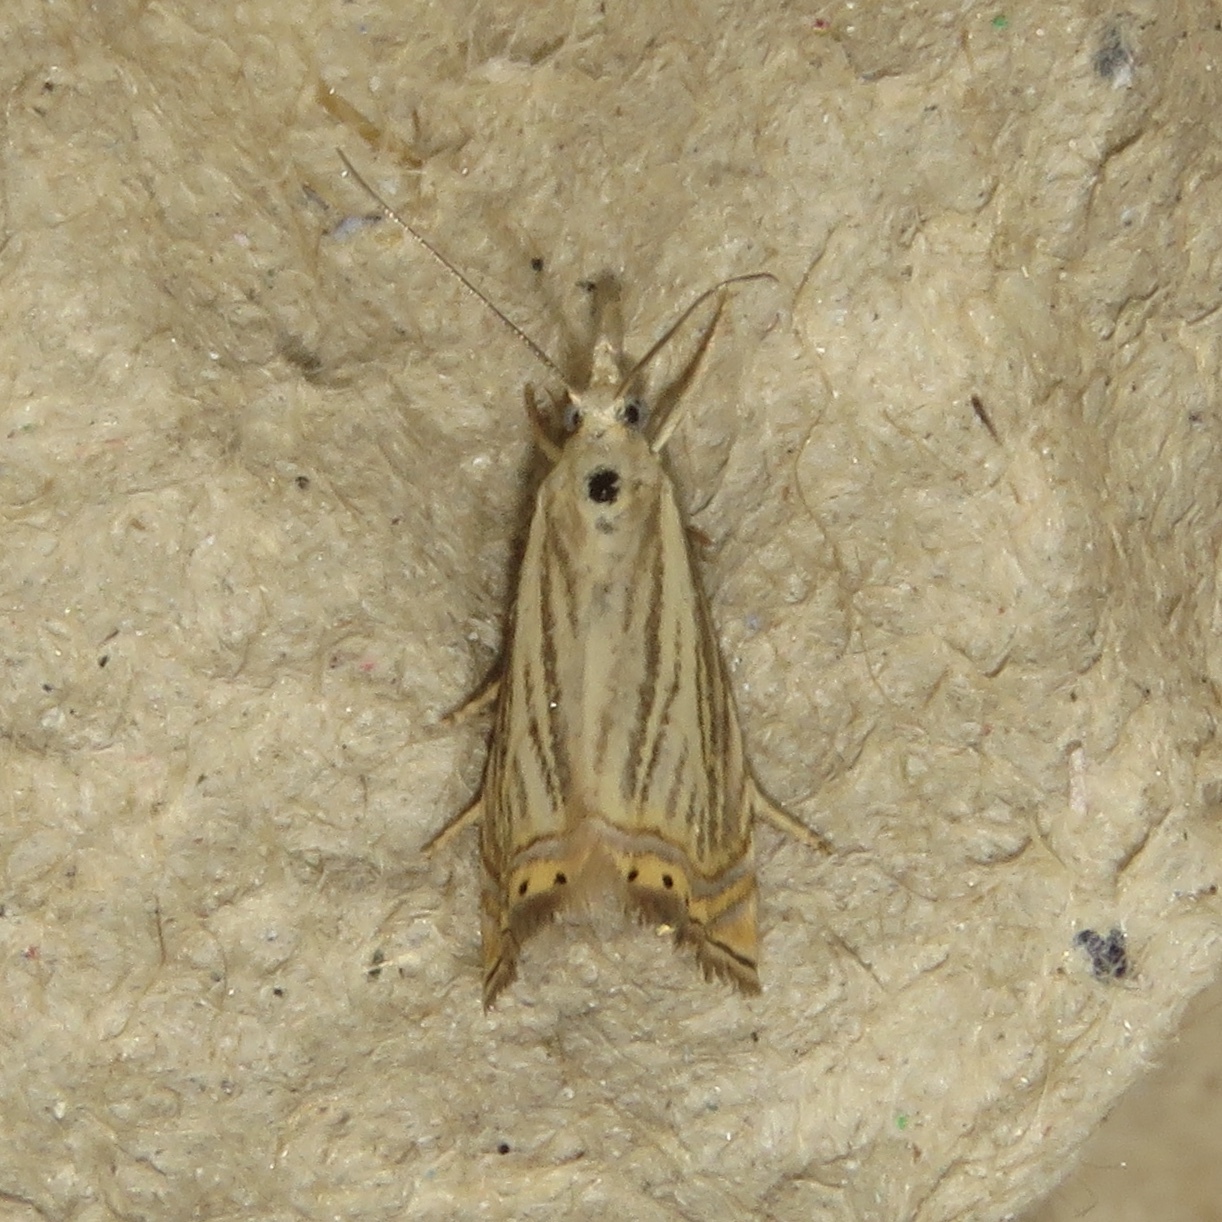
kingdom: Animalia
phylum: Arthropoda
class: Insecta
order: Lepidoptera
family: Crambidae
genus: Chrysoteuchia
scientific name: Chrysoteuchia topiarius
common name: Topiary grass-veneer
